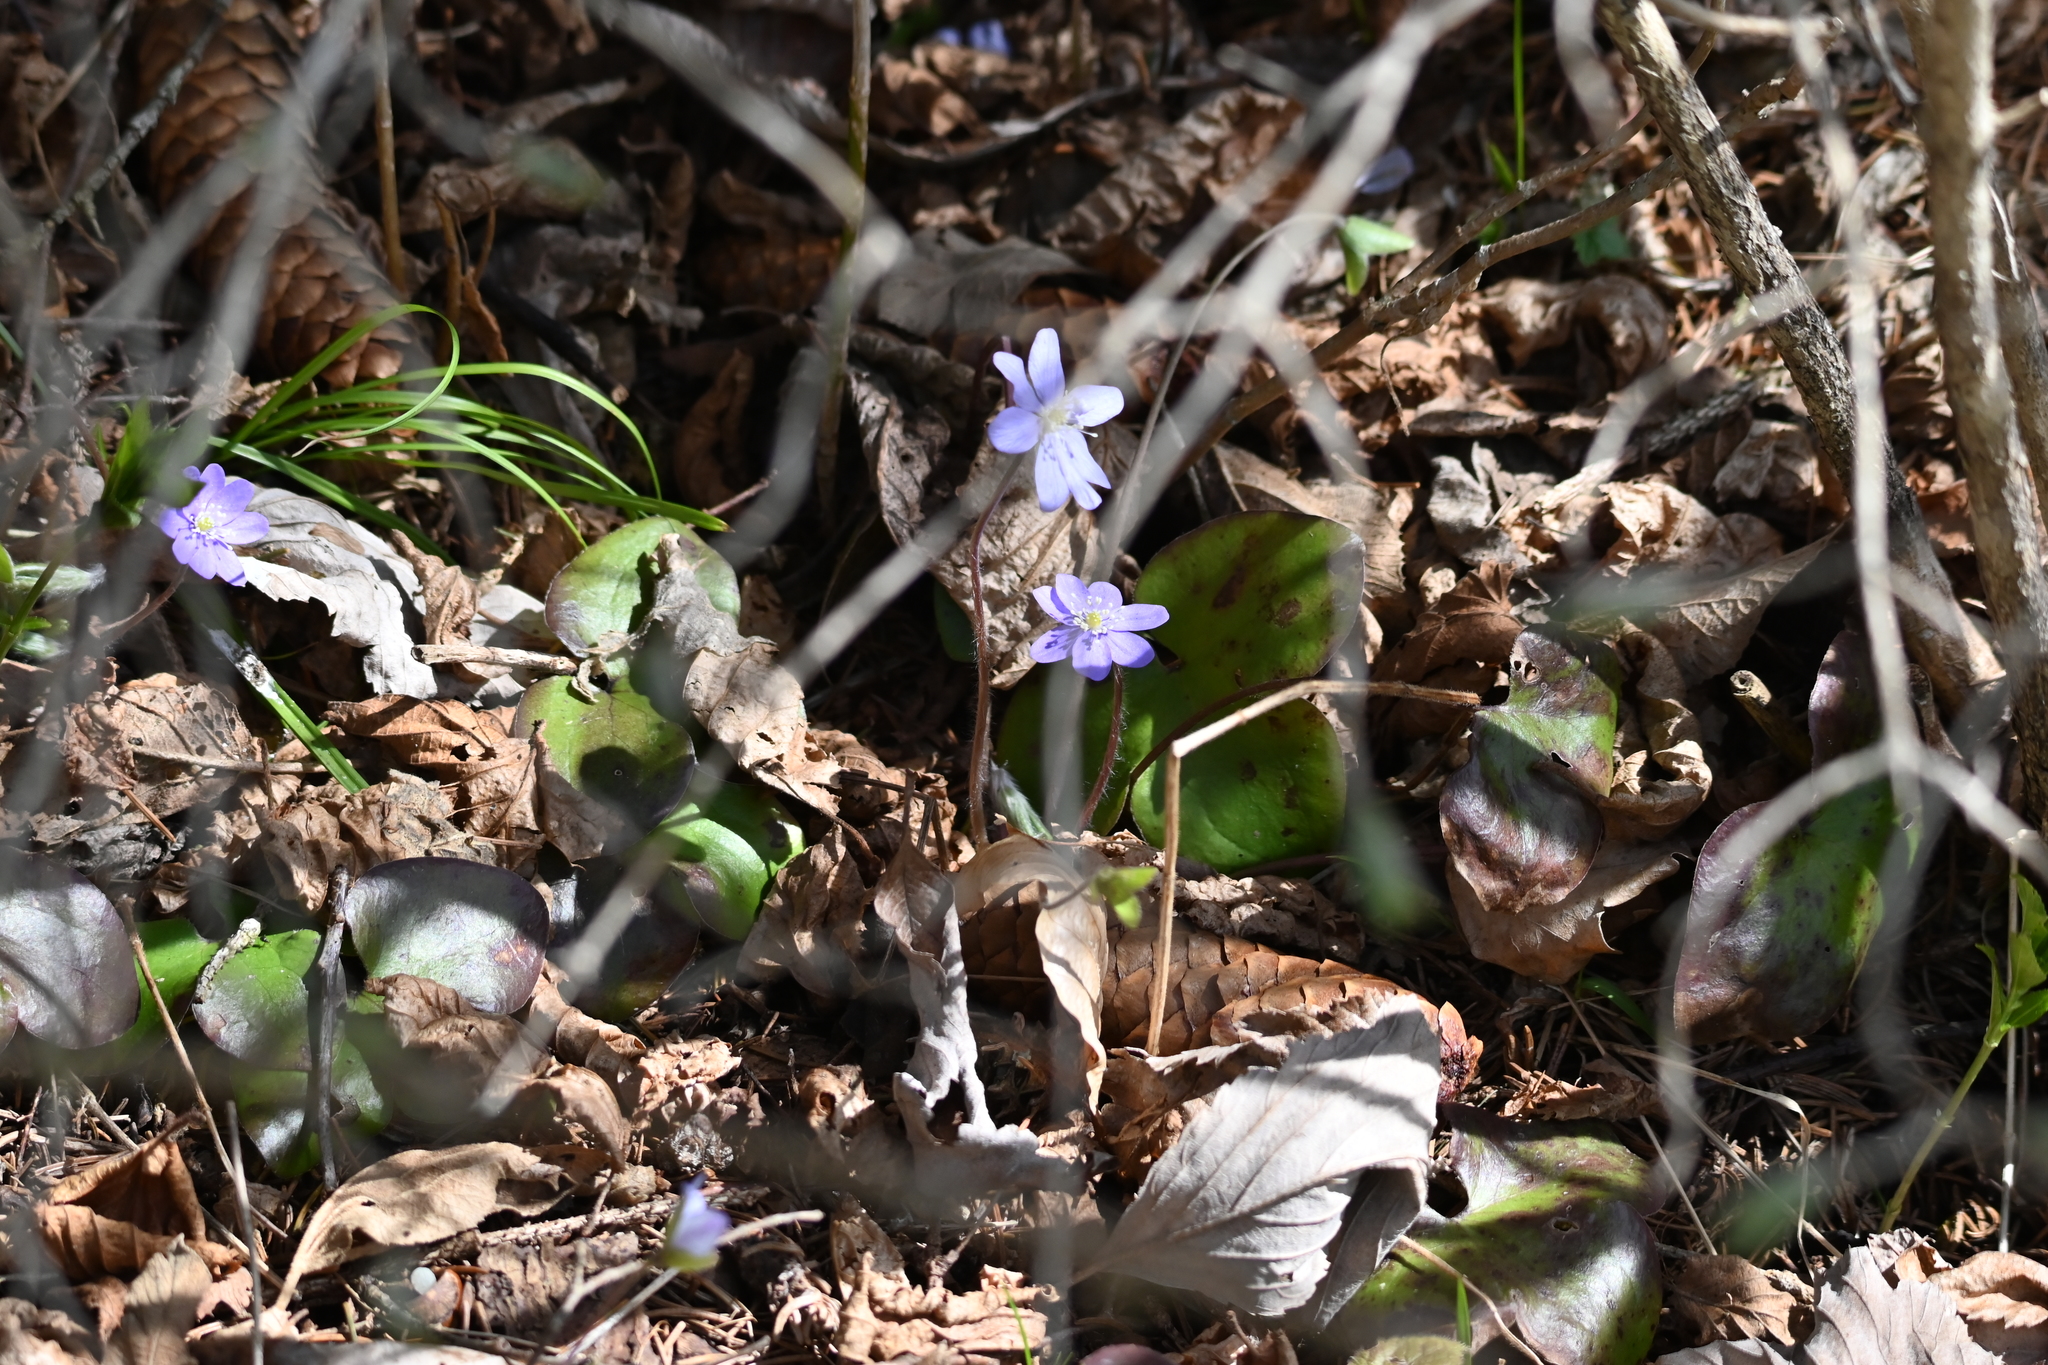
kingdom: Plantae
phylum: Tracheophyta
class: Magnoliopsida
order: Ranunculales
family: Ranunculaceae
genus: Hepatica
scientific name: Hepatica nobilis
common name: Liverleaf
